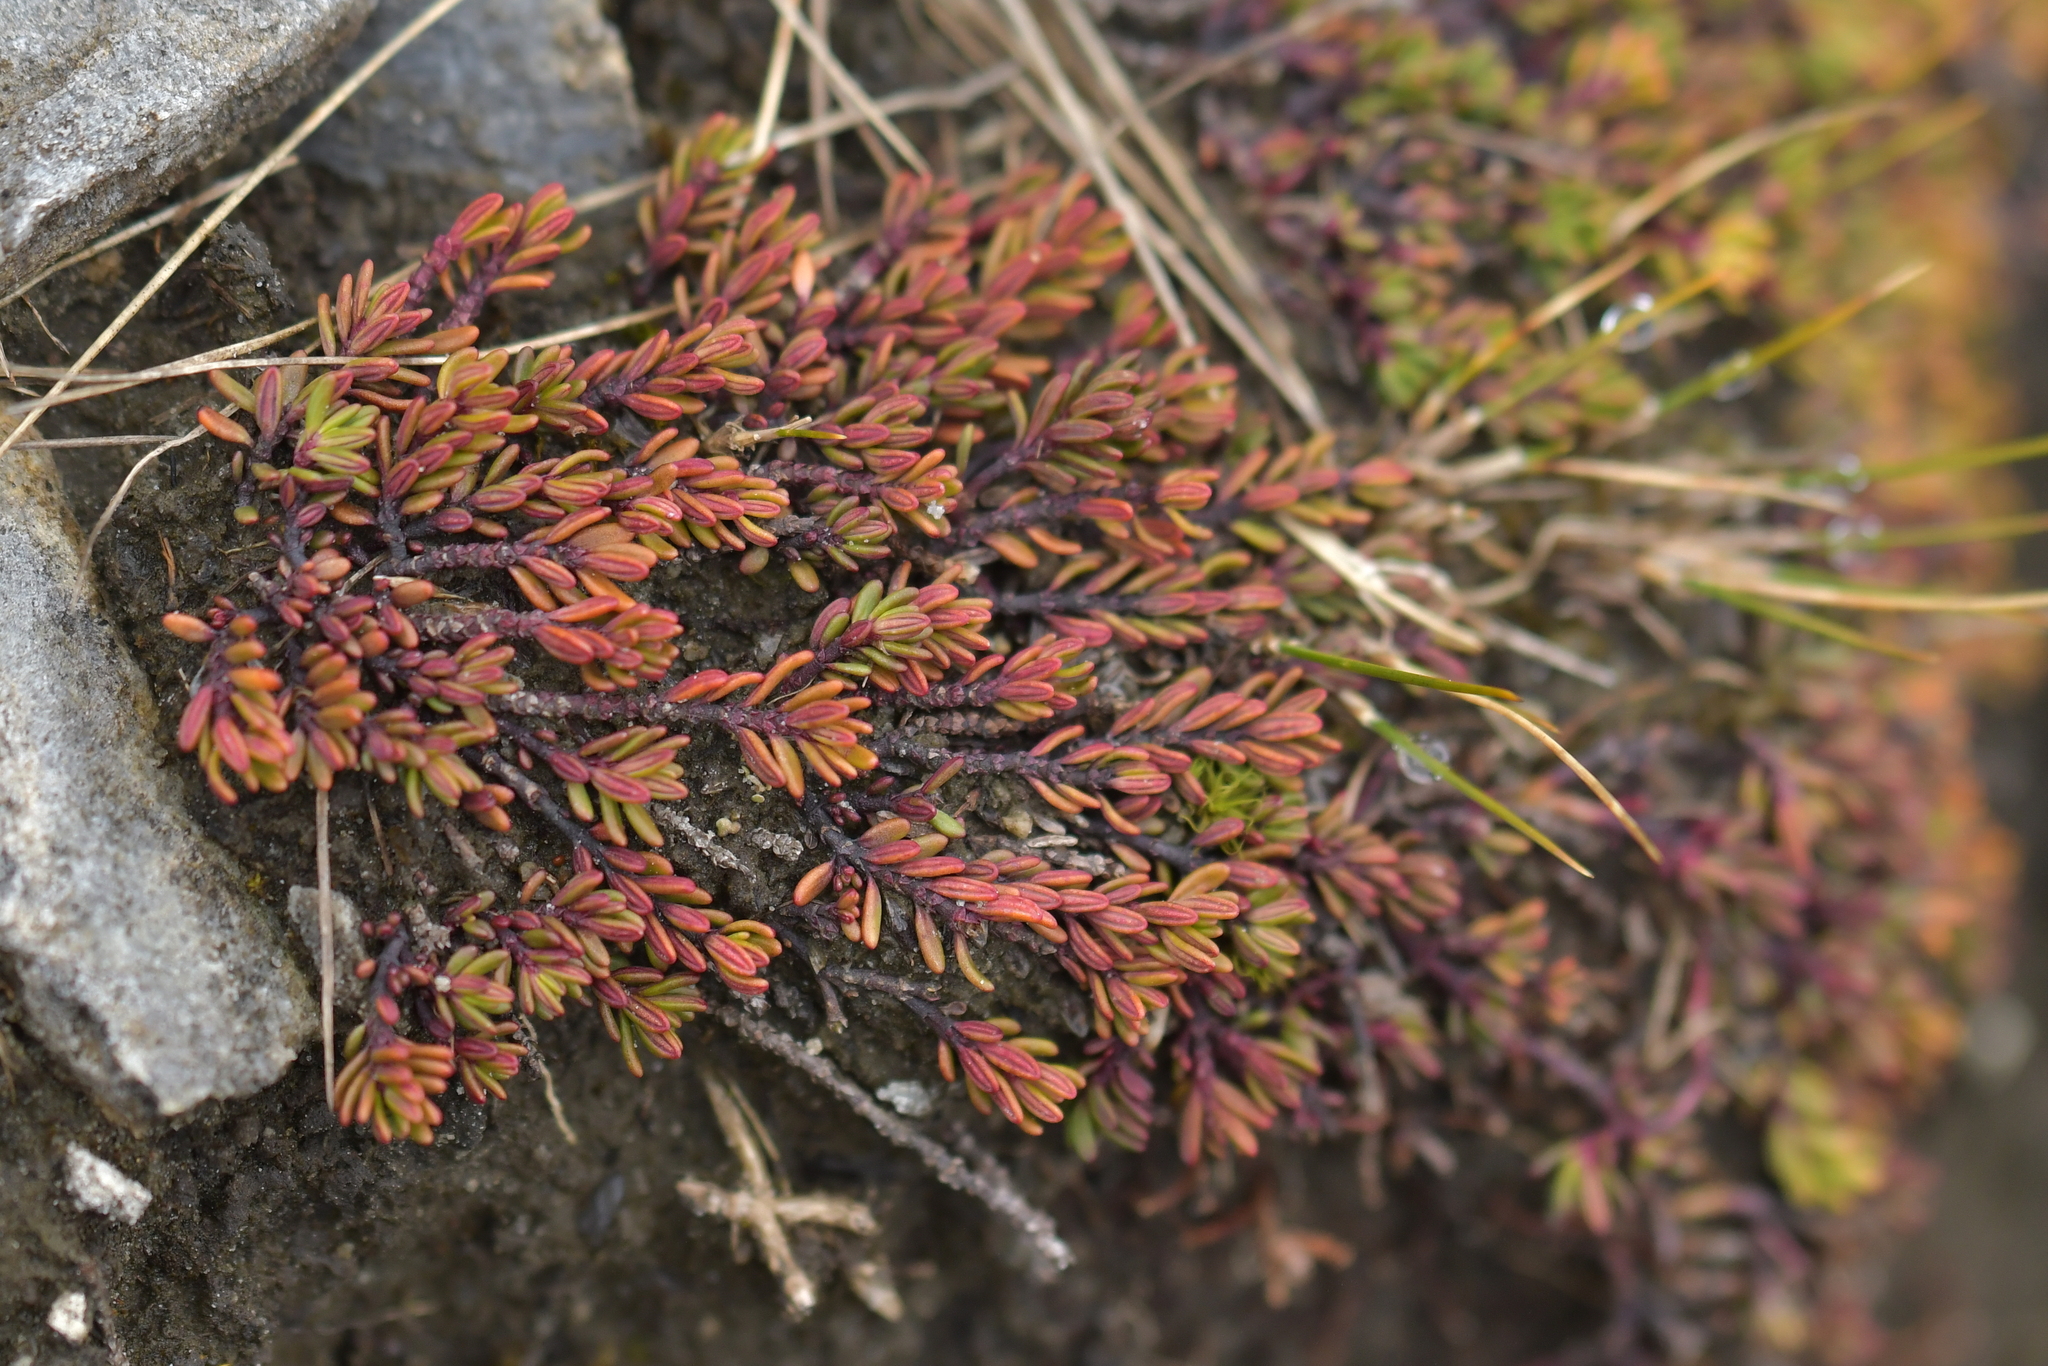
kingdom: Plantae
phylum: Tracheophyta
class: Magnoliopsida
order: Malpighiales
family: Phyllanthaceae
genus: Poranthera
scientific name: Poranthera alpina
